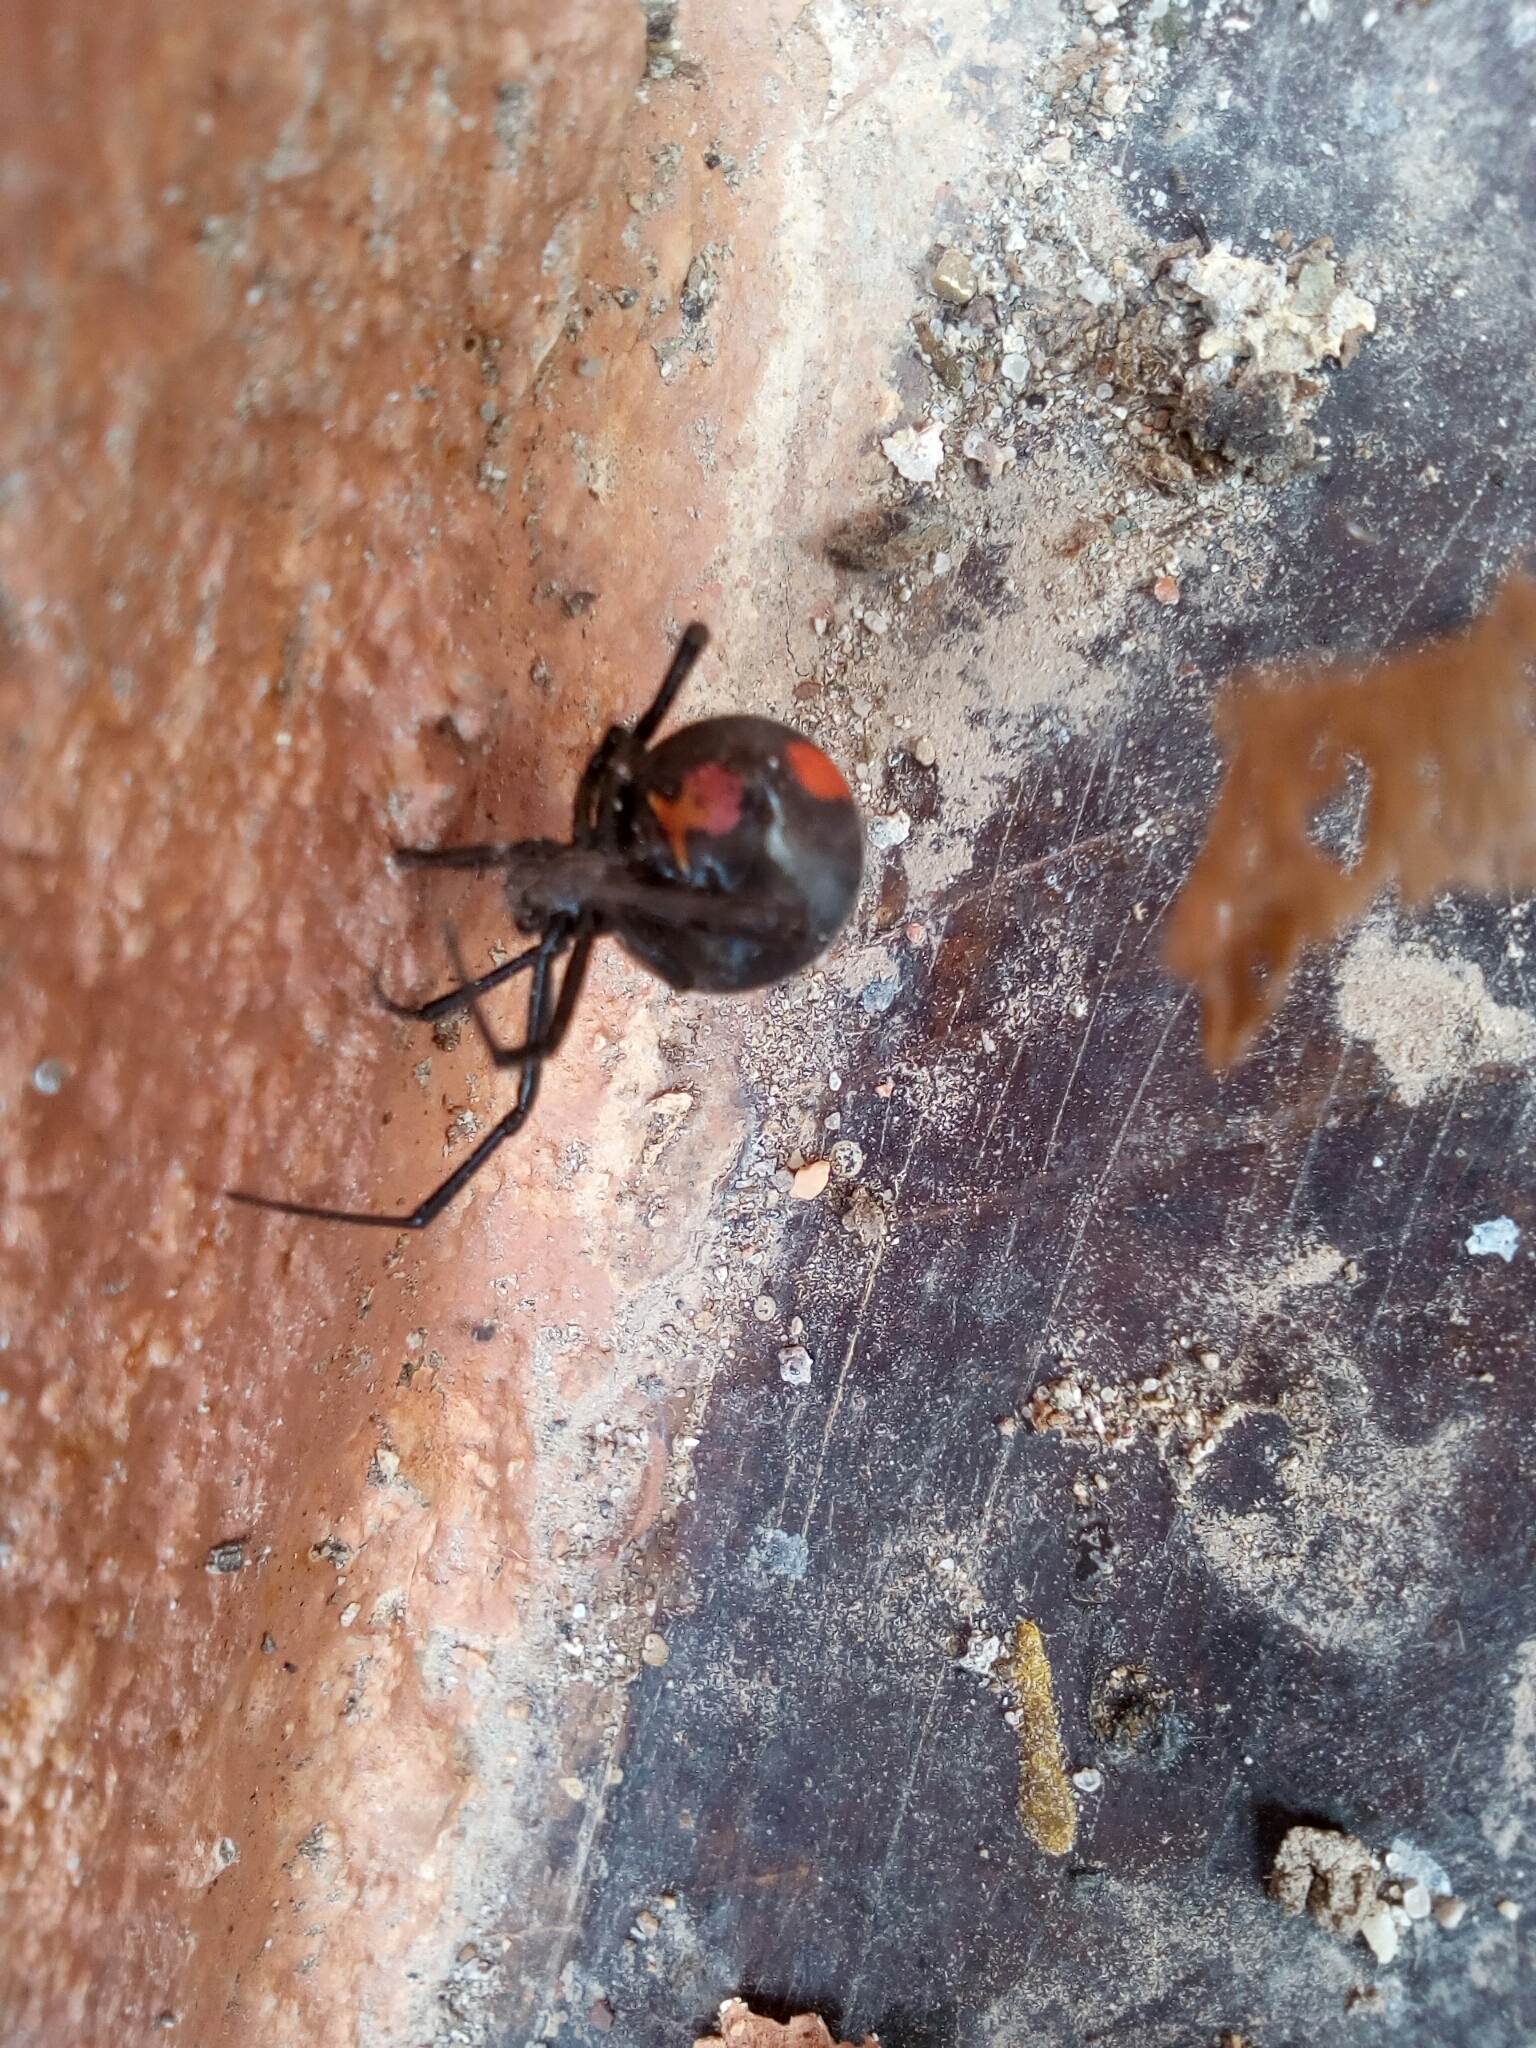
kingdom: Animalia
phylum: Arthropoda
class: Arachnida
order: Araneae
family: Theridiidae
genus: Latrodectus
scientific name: Latrodectus mirabilis
